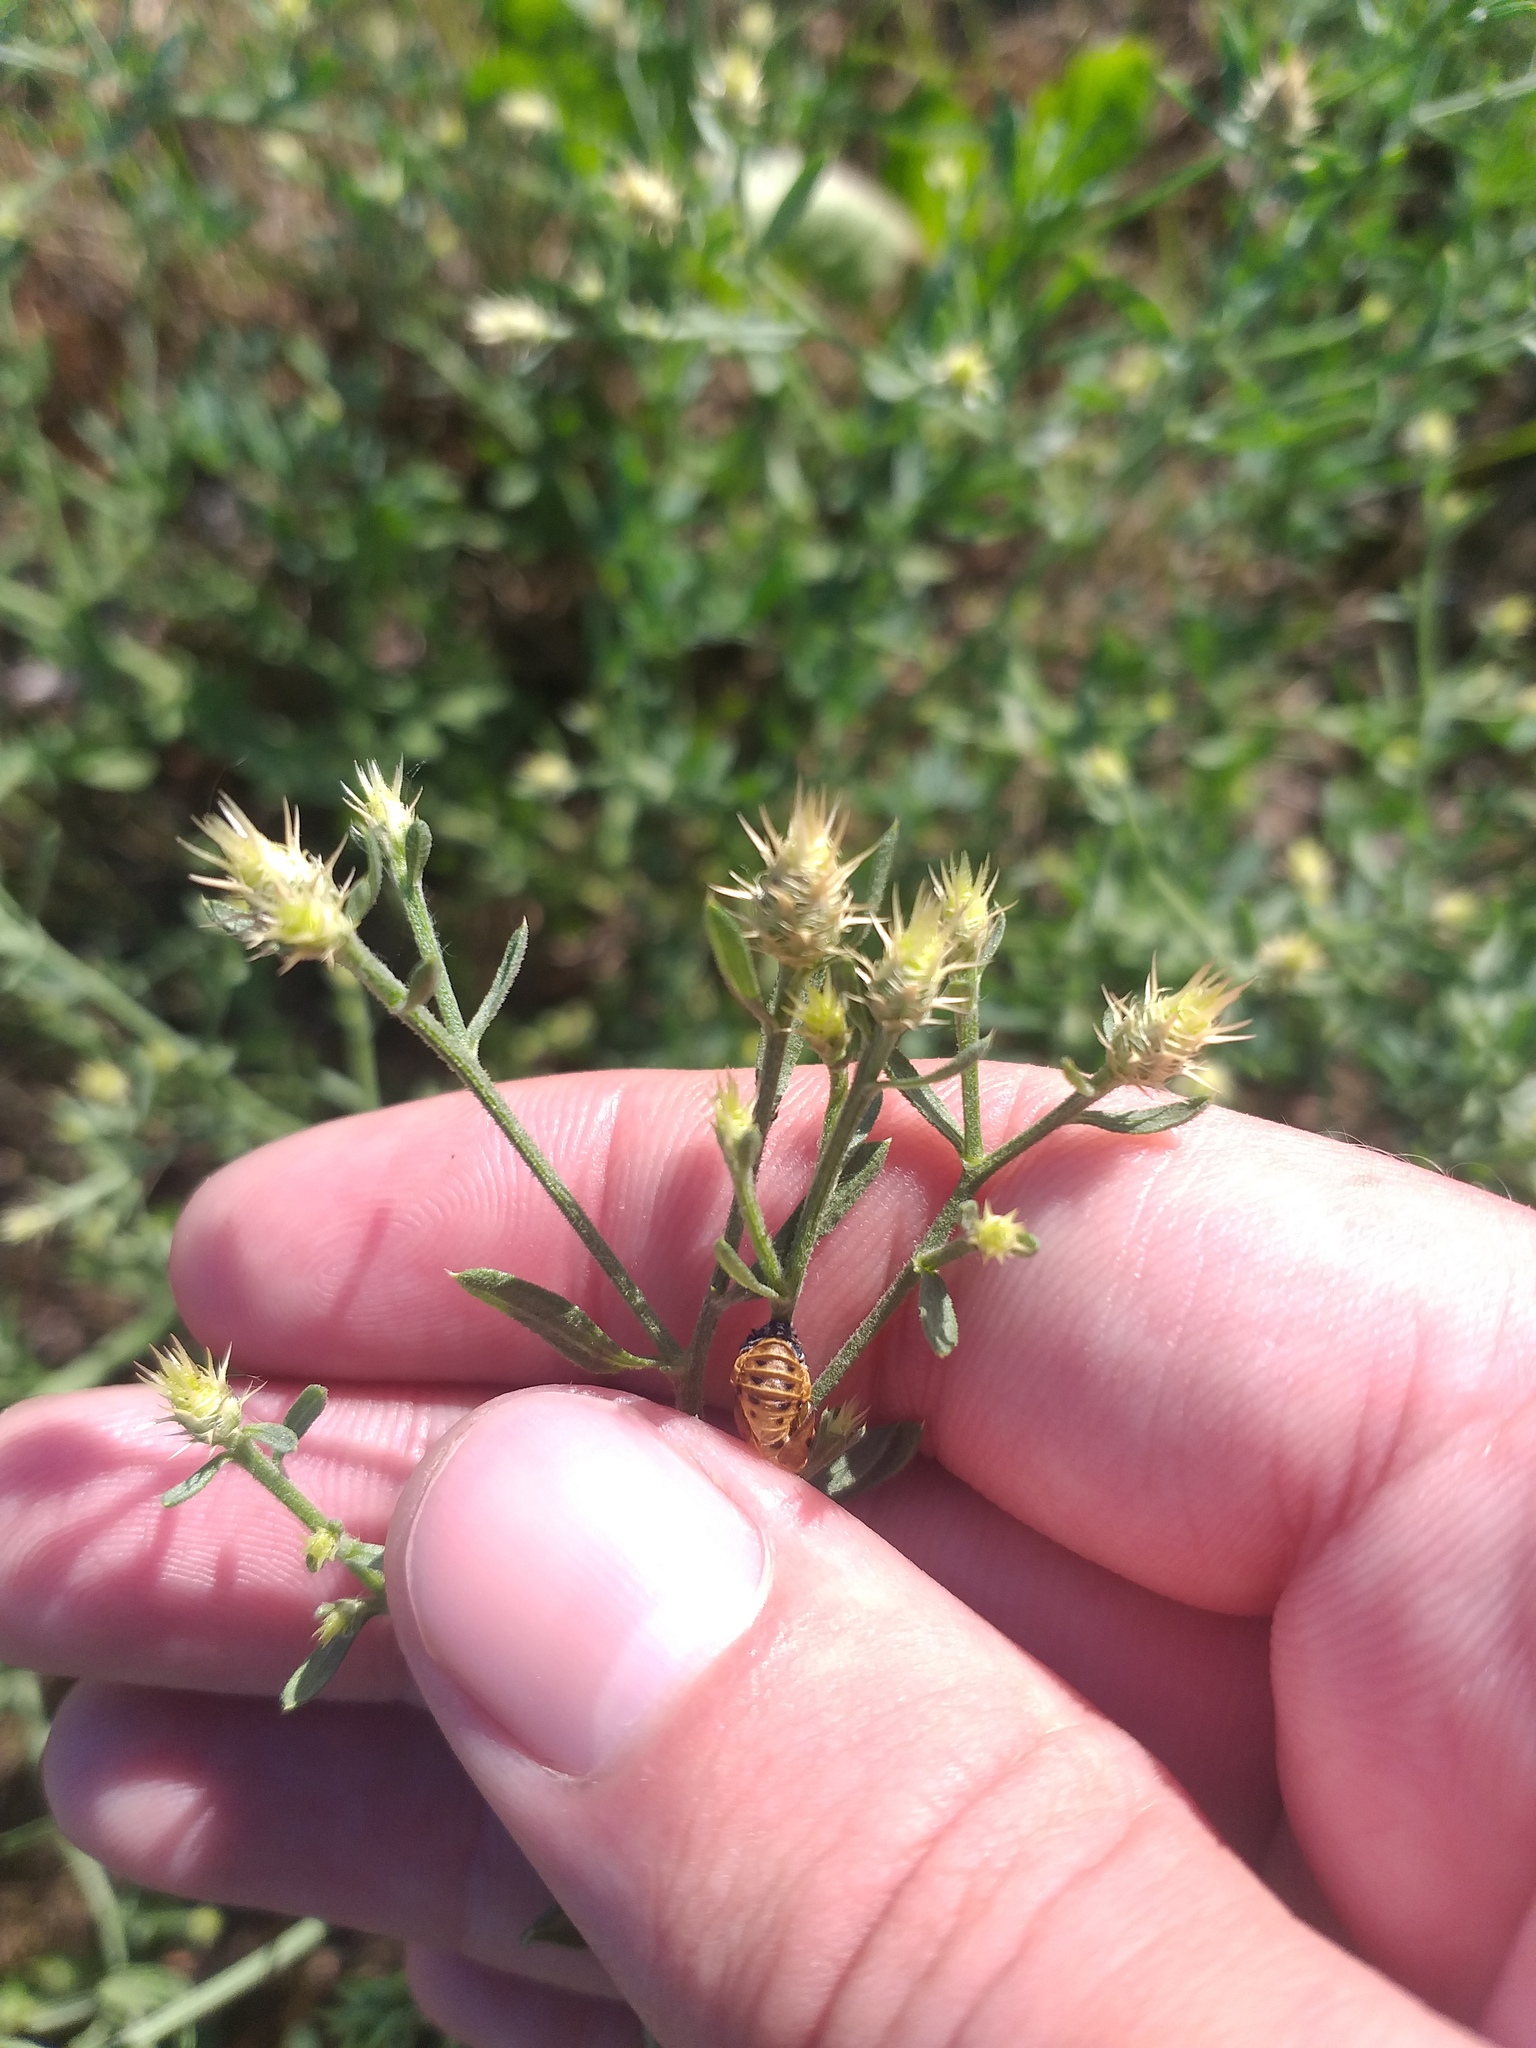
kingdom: Plantae
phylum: Tracheophyta
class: Magnoliopsida
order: Asterales
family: Asteraceae
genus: Centaurea
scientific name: Centaurea diffusa
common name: Diffuse knapweed
